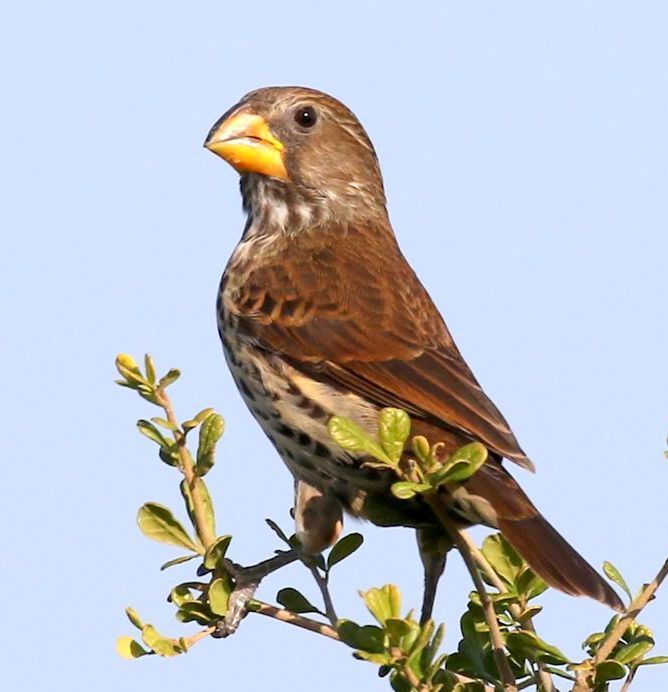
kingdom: Animalia
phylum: Chordata
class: Aves
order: Passeriformes
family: Ploceidae
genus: Amblyospiza
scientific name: Amblyospiza albifrons
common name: Thick-billed weaver
